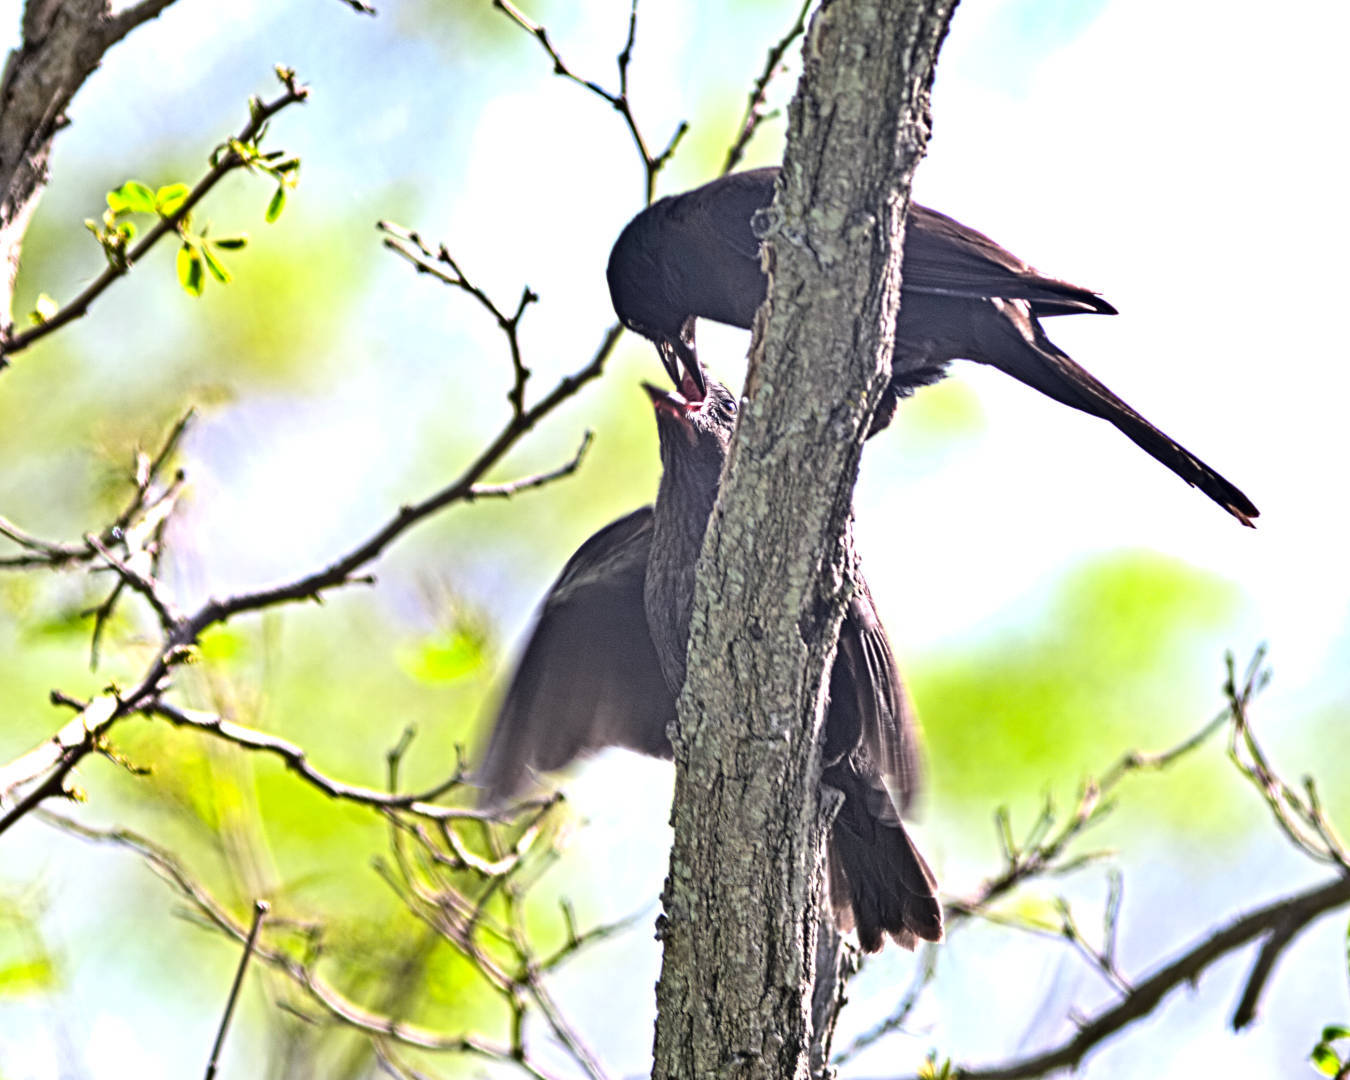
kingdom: Animalia
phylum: Chordata
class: Aves
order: Passeriformes
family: Icteridae
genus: Quiscalus
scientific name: Quiscalus quiscula
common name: Common grackle
